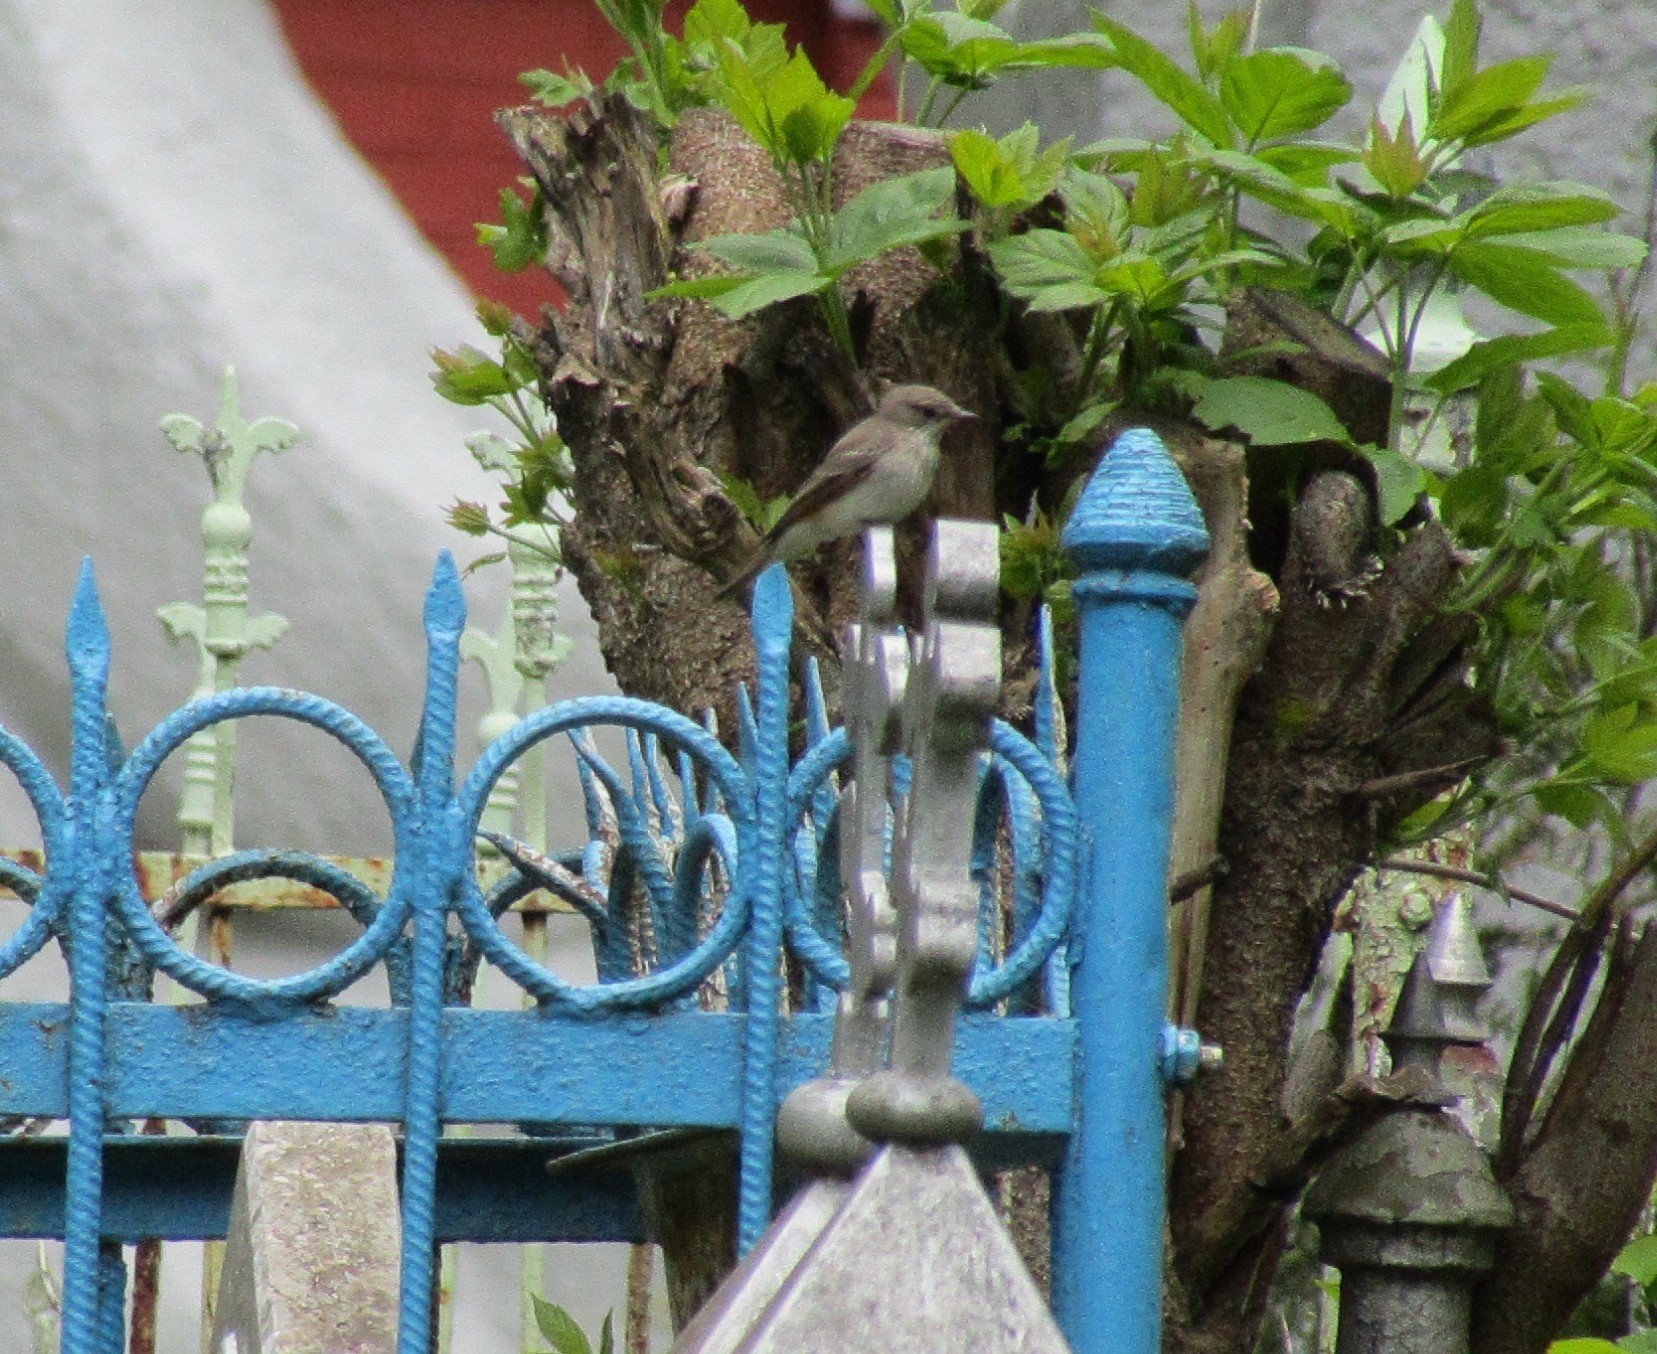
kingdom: Animalia
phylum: Chordata
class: Aves
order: Passeriformes
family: Muscicapidae
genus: Muscicapa
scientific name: Muscicapa striata
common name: Spotted flycatcher
